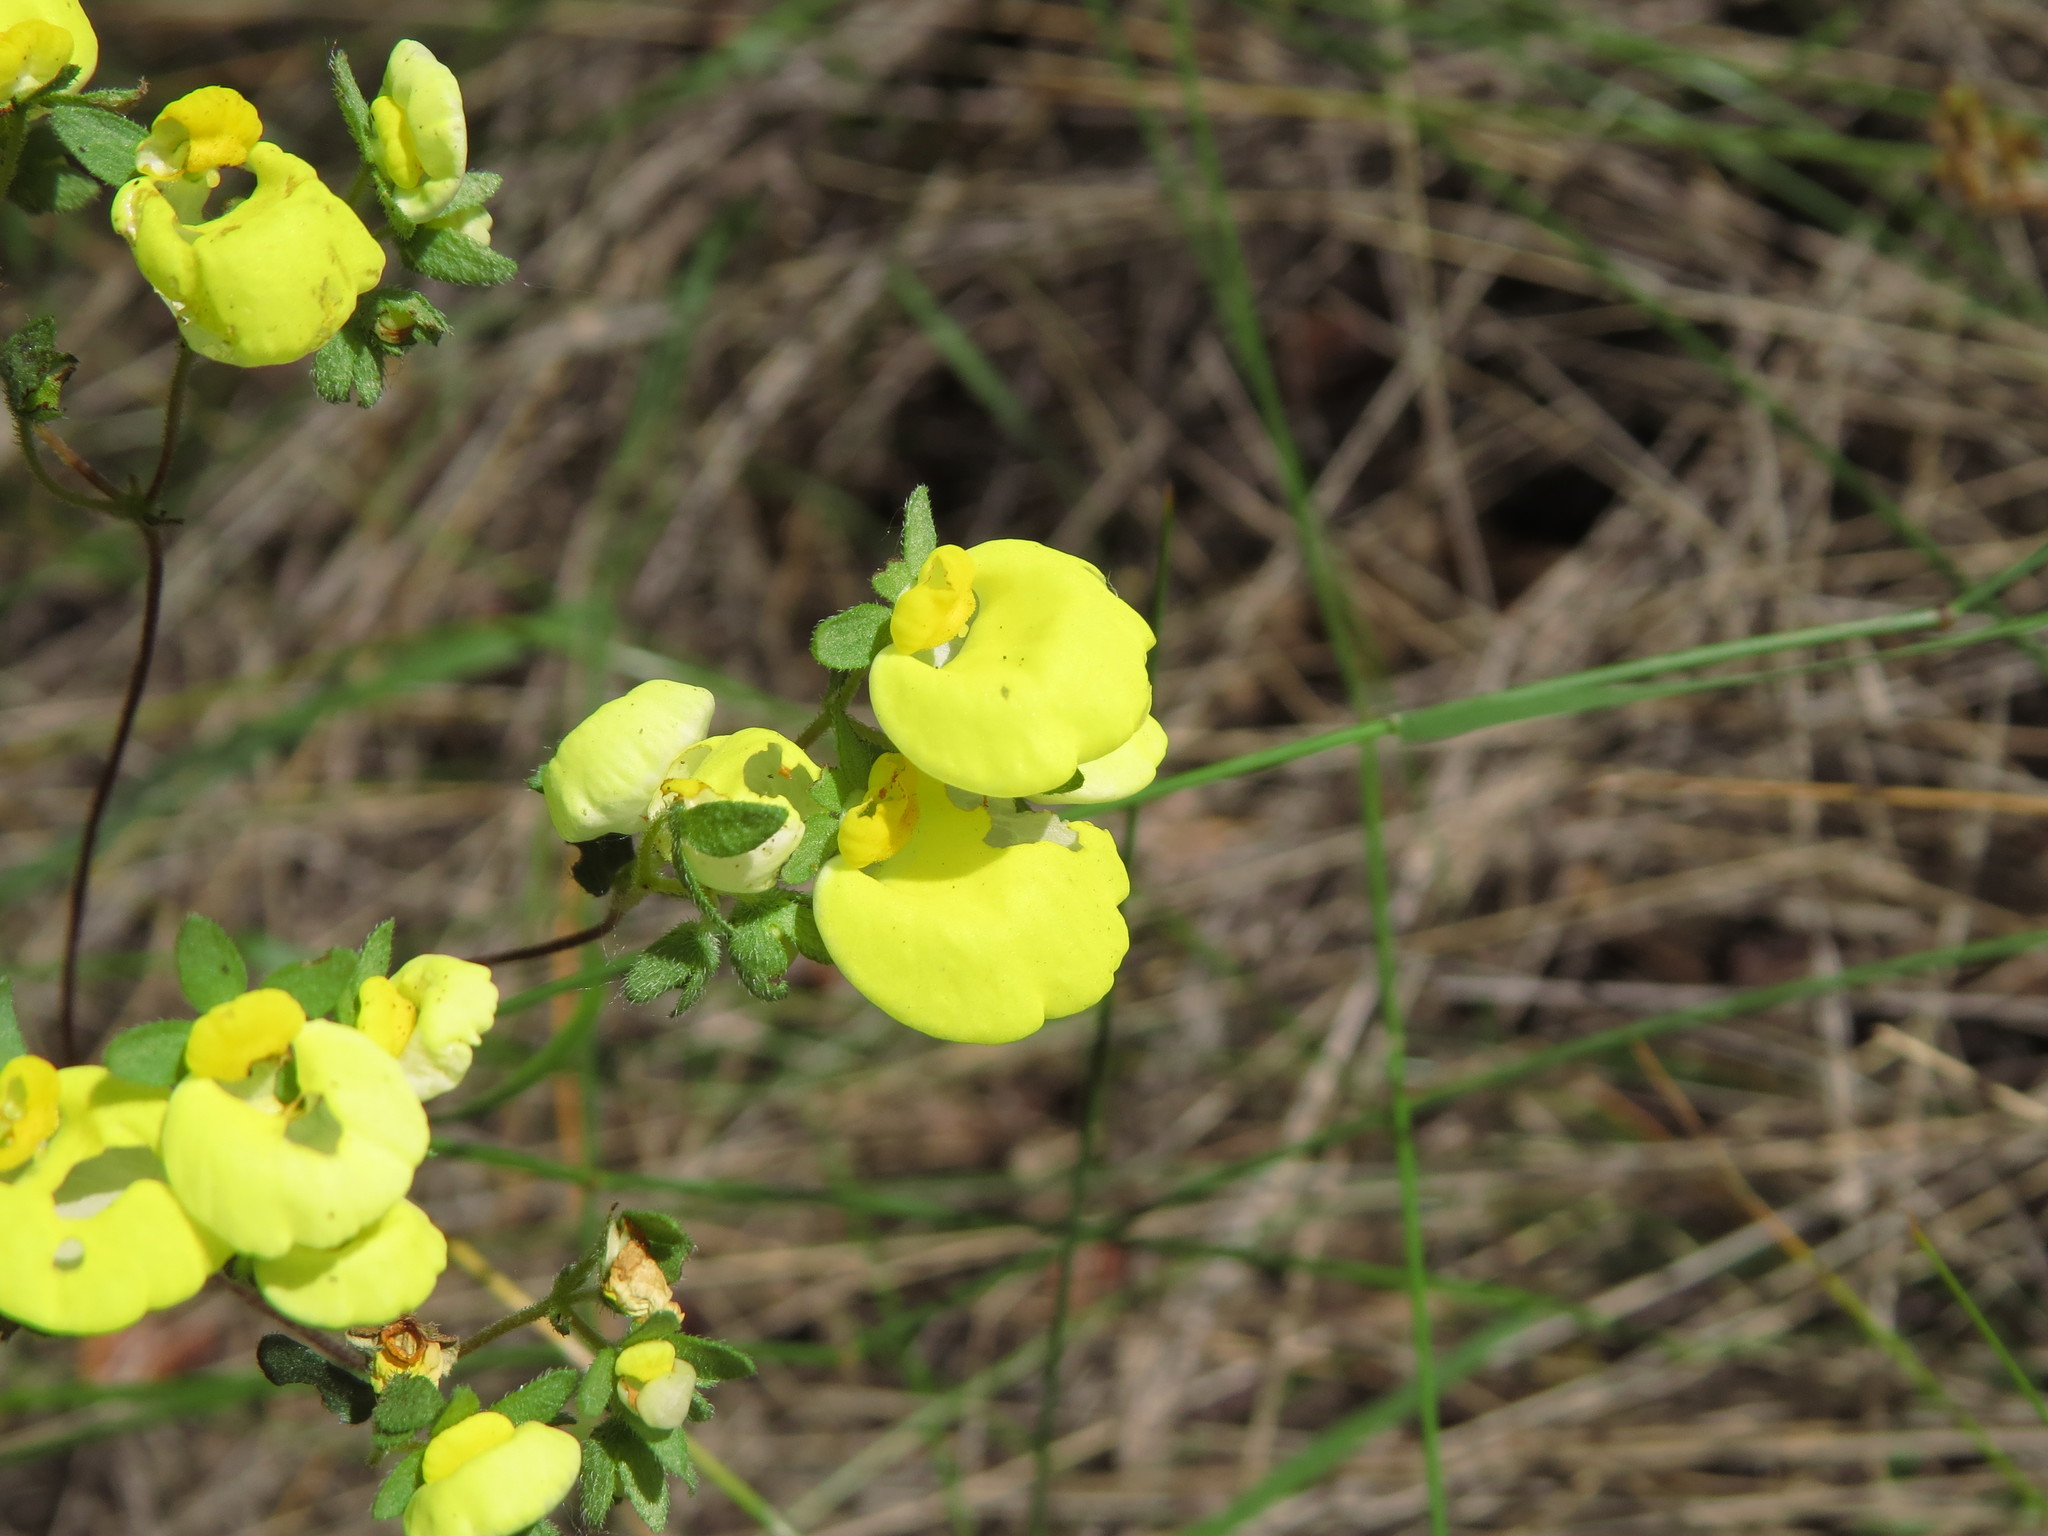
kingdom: Plantae
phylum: Tracheophyta
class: Magnoliopsida
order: Lamiales
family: Calceolariaceae
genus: Calceolaria
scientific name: Calceolaria nudicaulis
